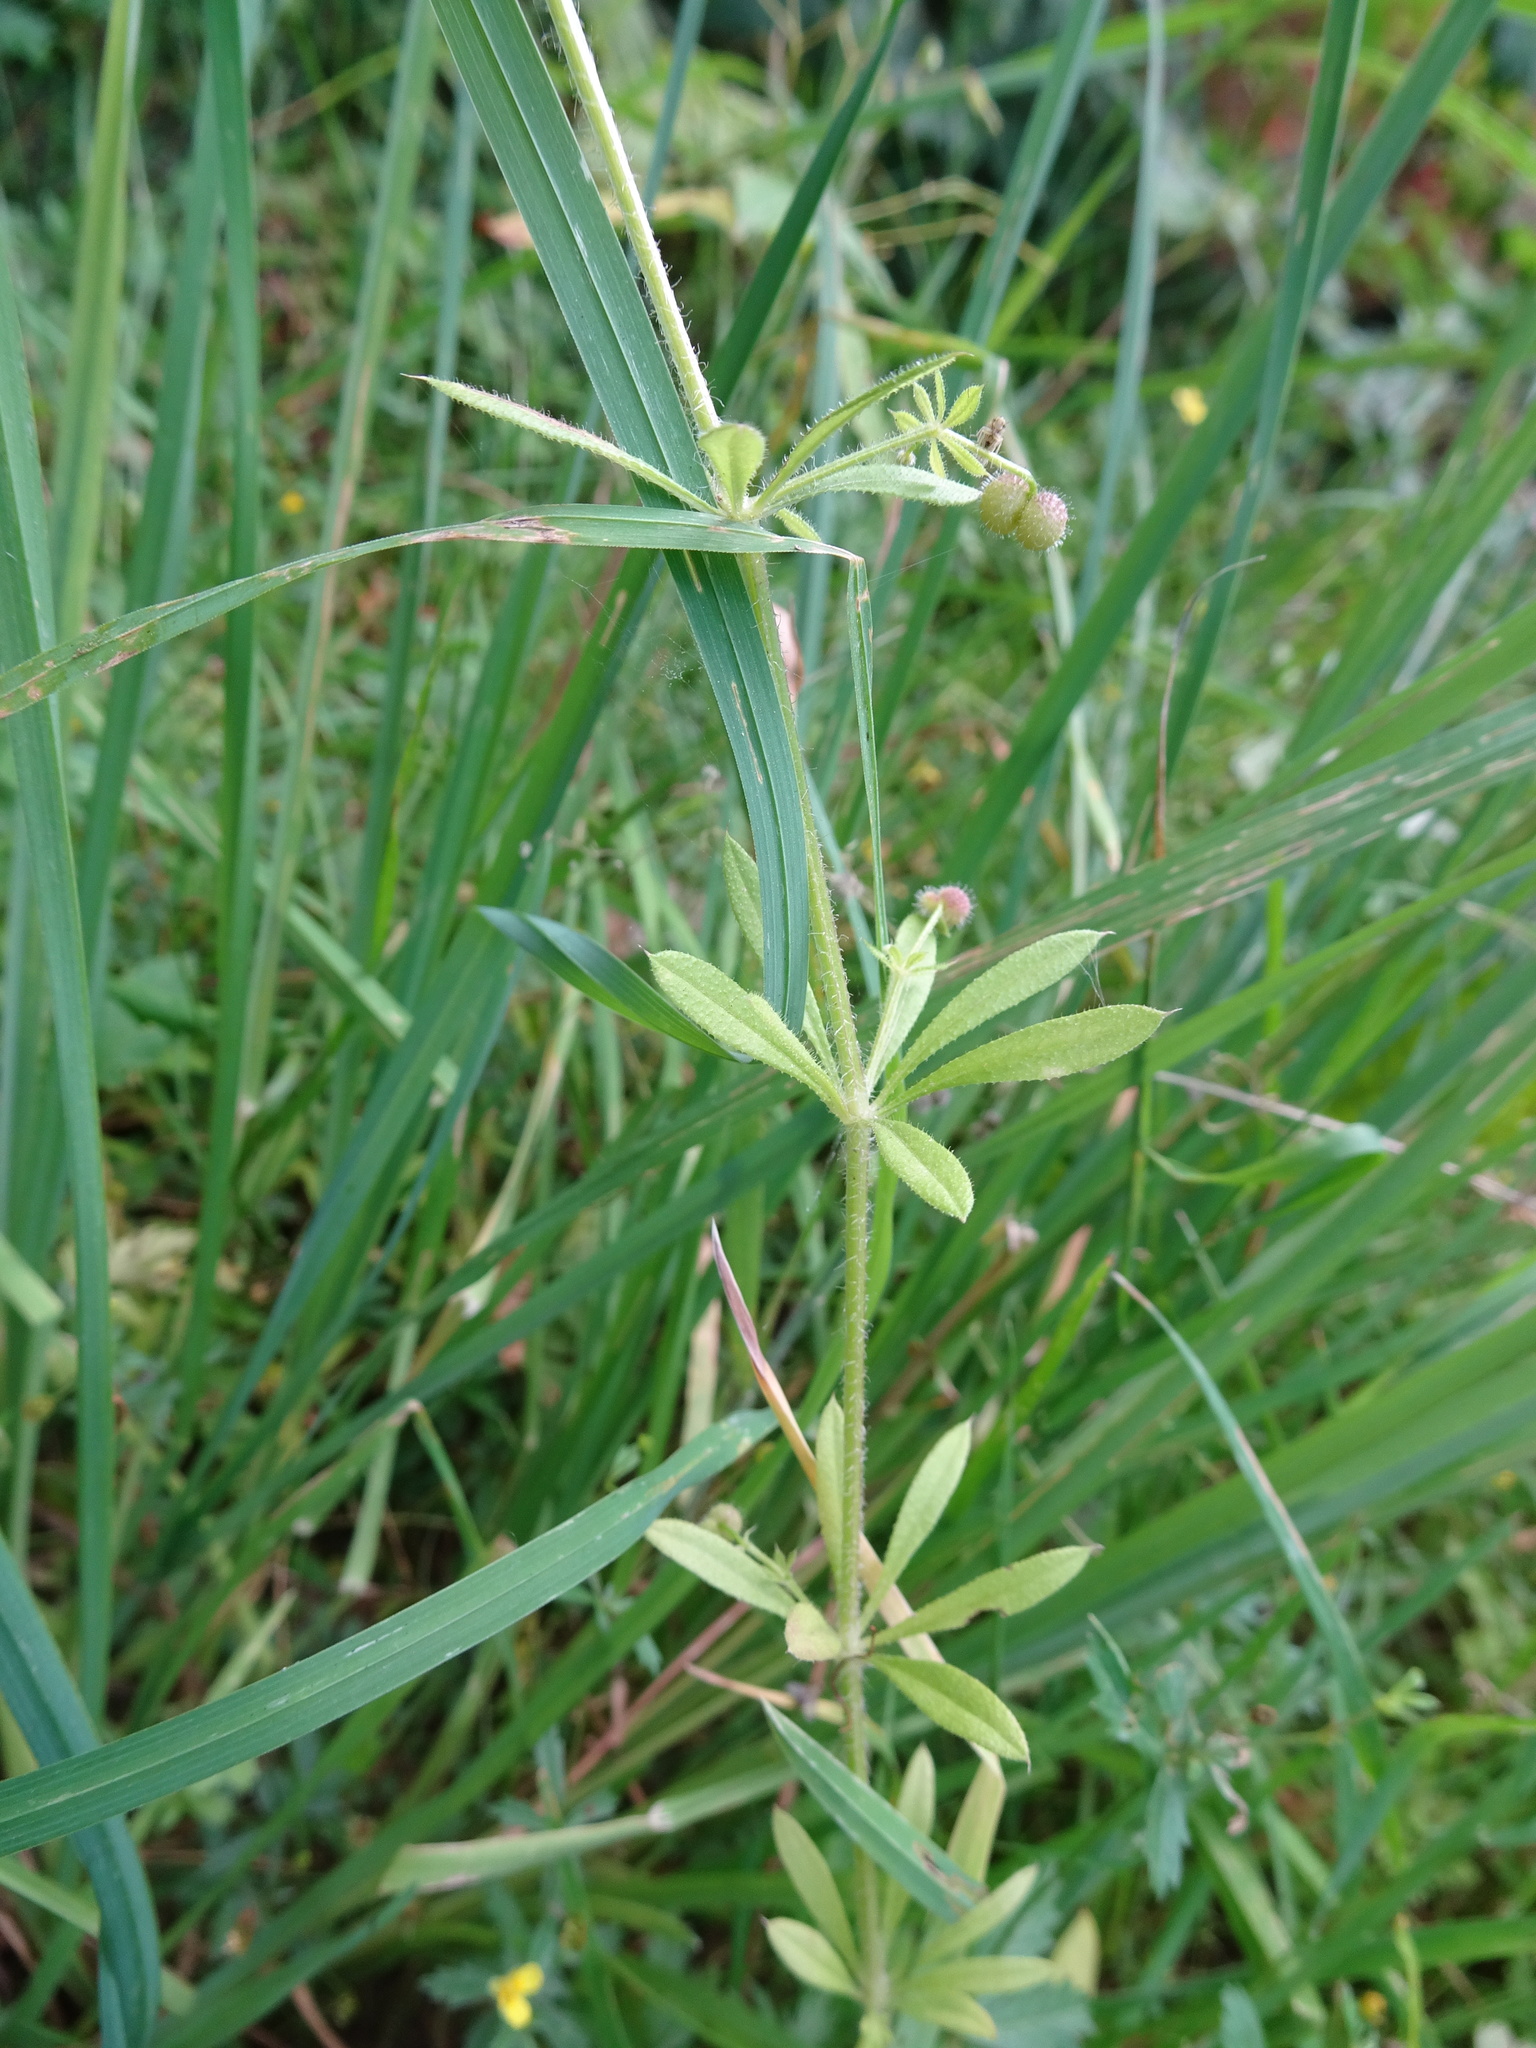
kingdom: Plantae
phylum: Tracheophyta
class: Magnoliopsida
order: Gentianales
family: Rubiaceae
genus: Galium
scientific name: Galium aparine
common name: Cleavers
